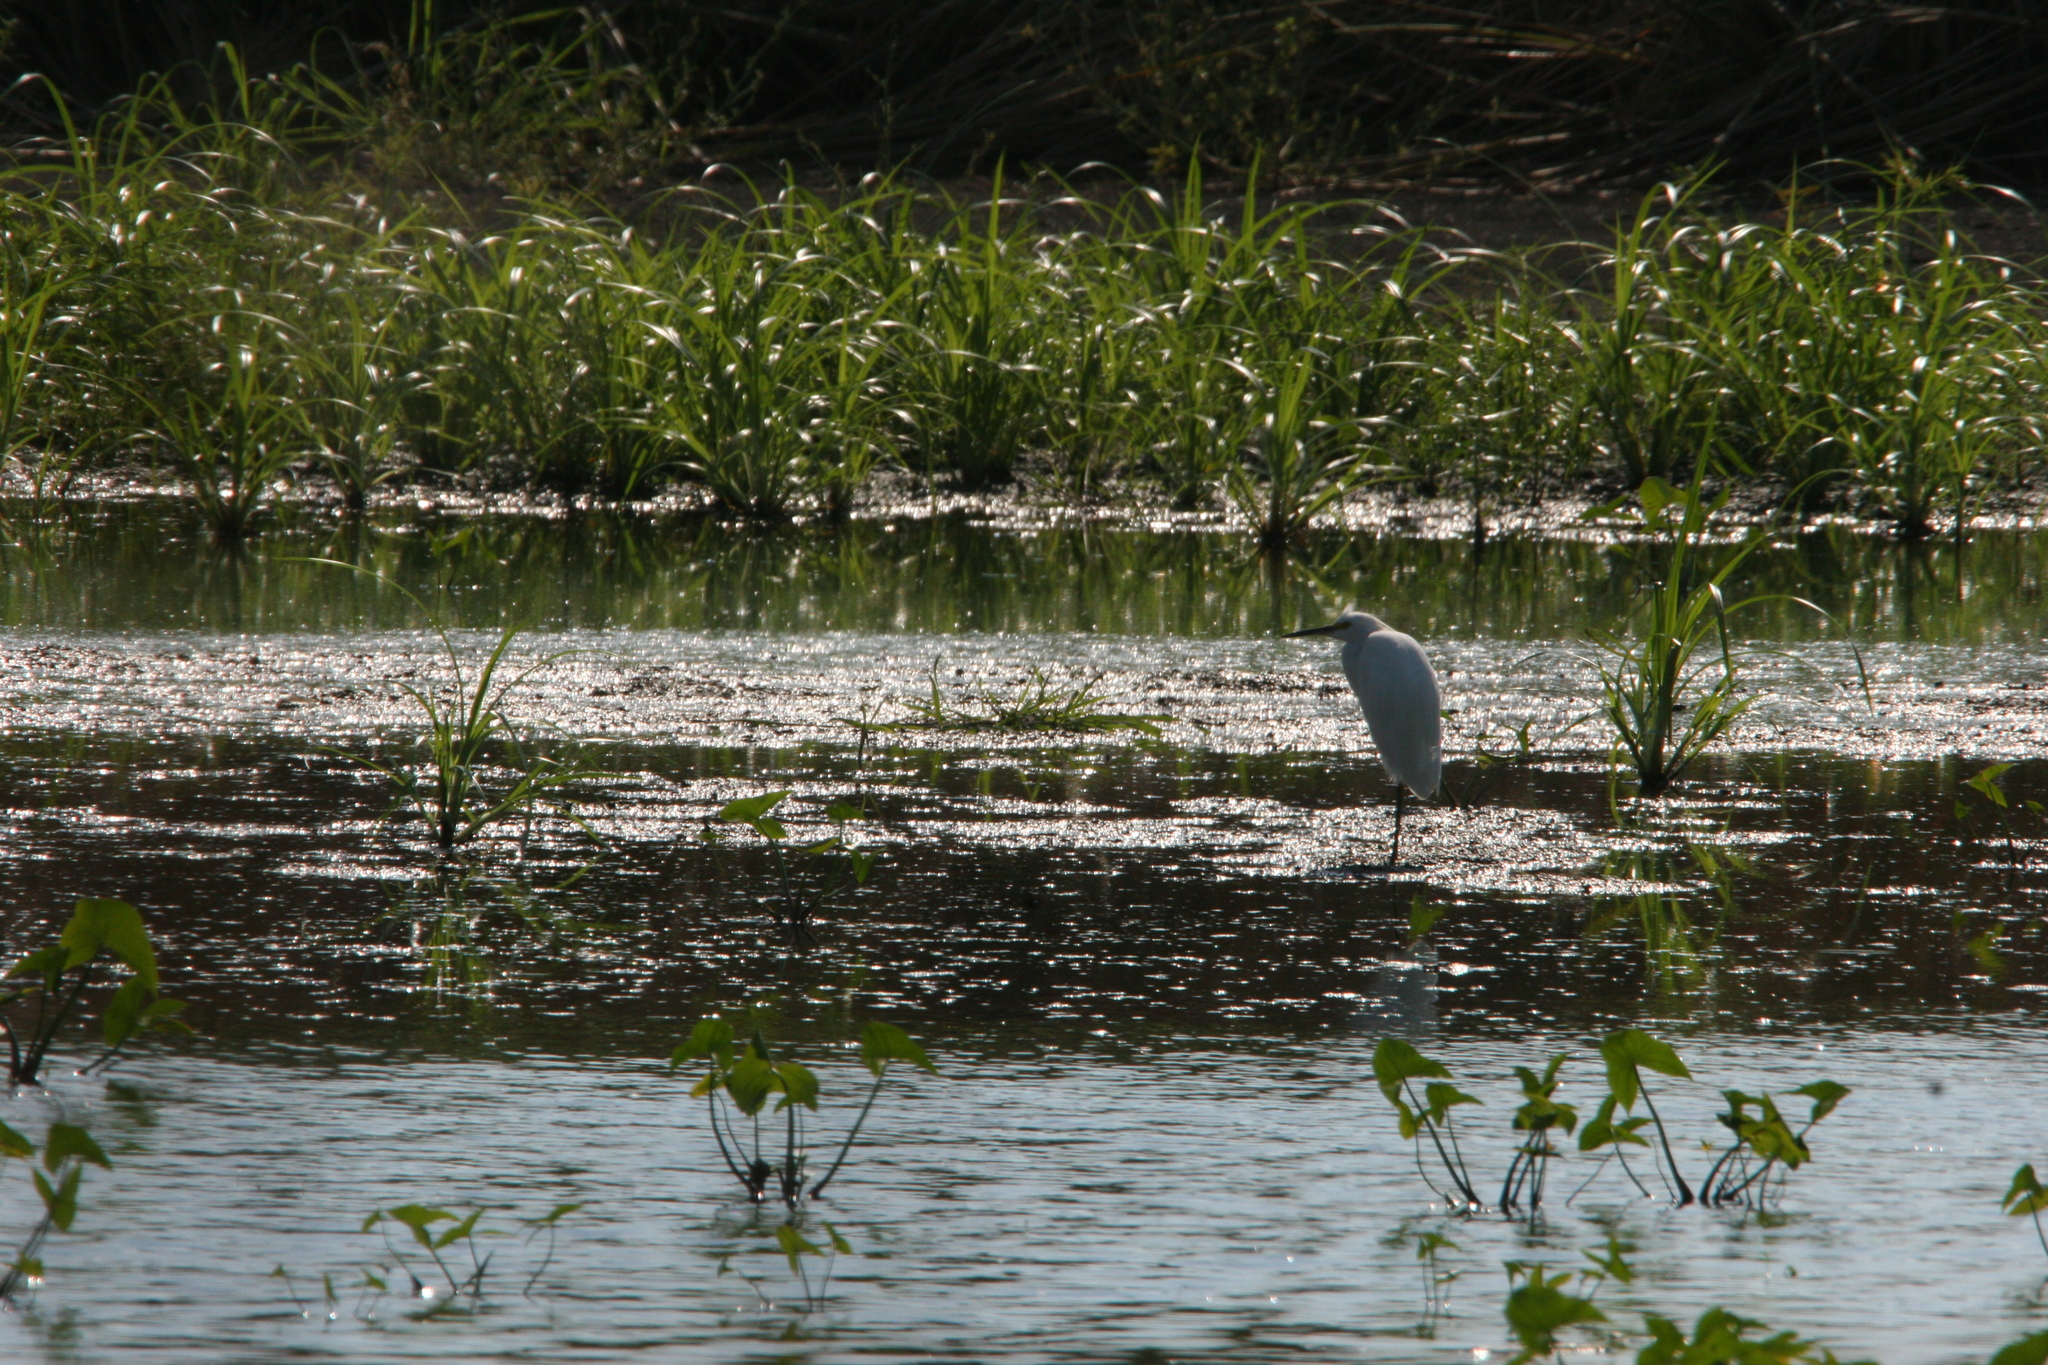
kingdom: Animalia
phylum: Chordata
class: Aves
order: Pelecaniformes
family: Ardeidae
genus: Egretta
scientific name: Egretta thula
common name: Snowy egret
